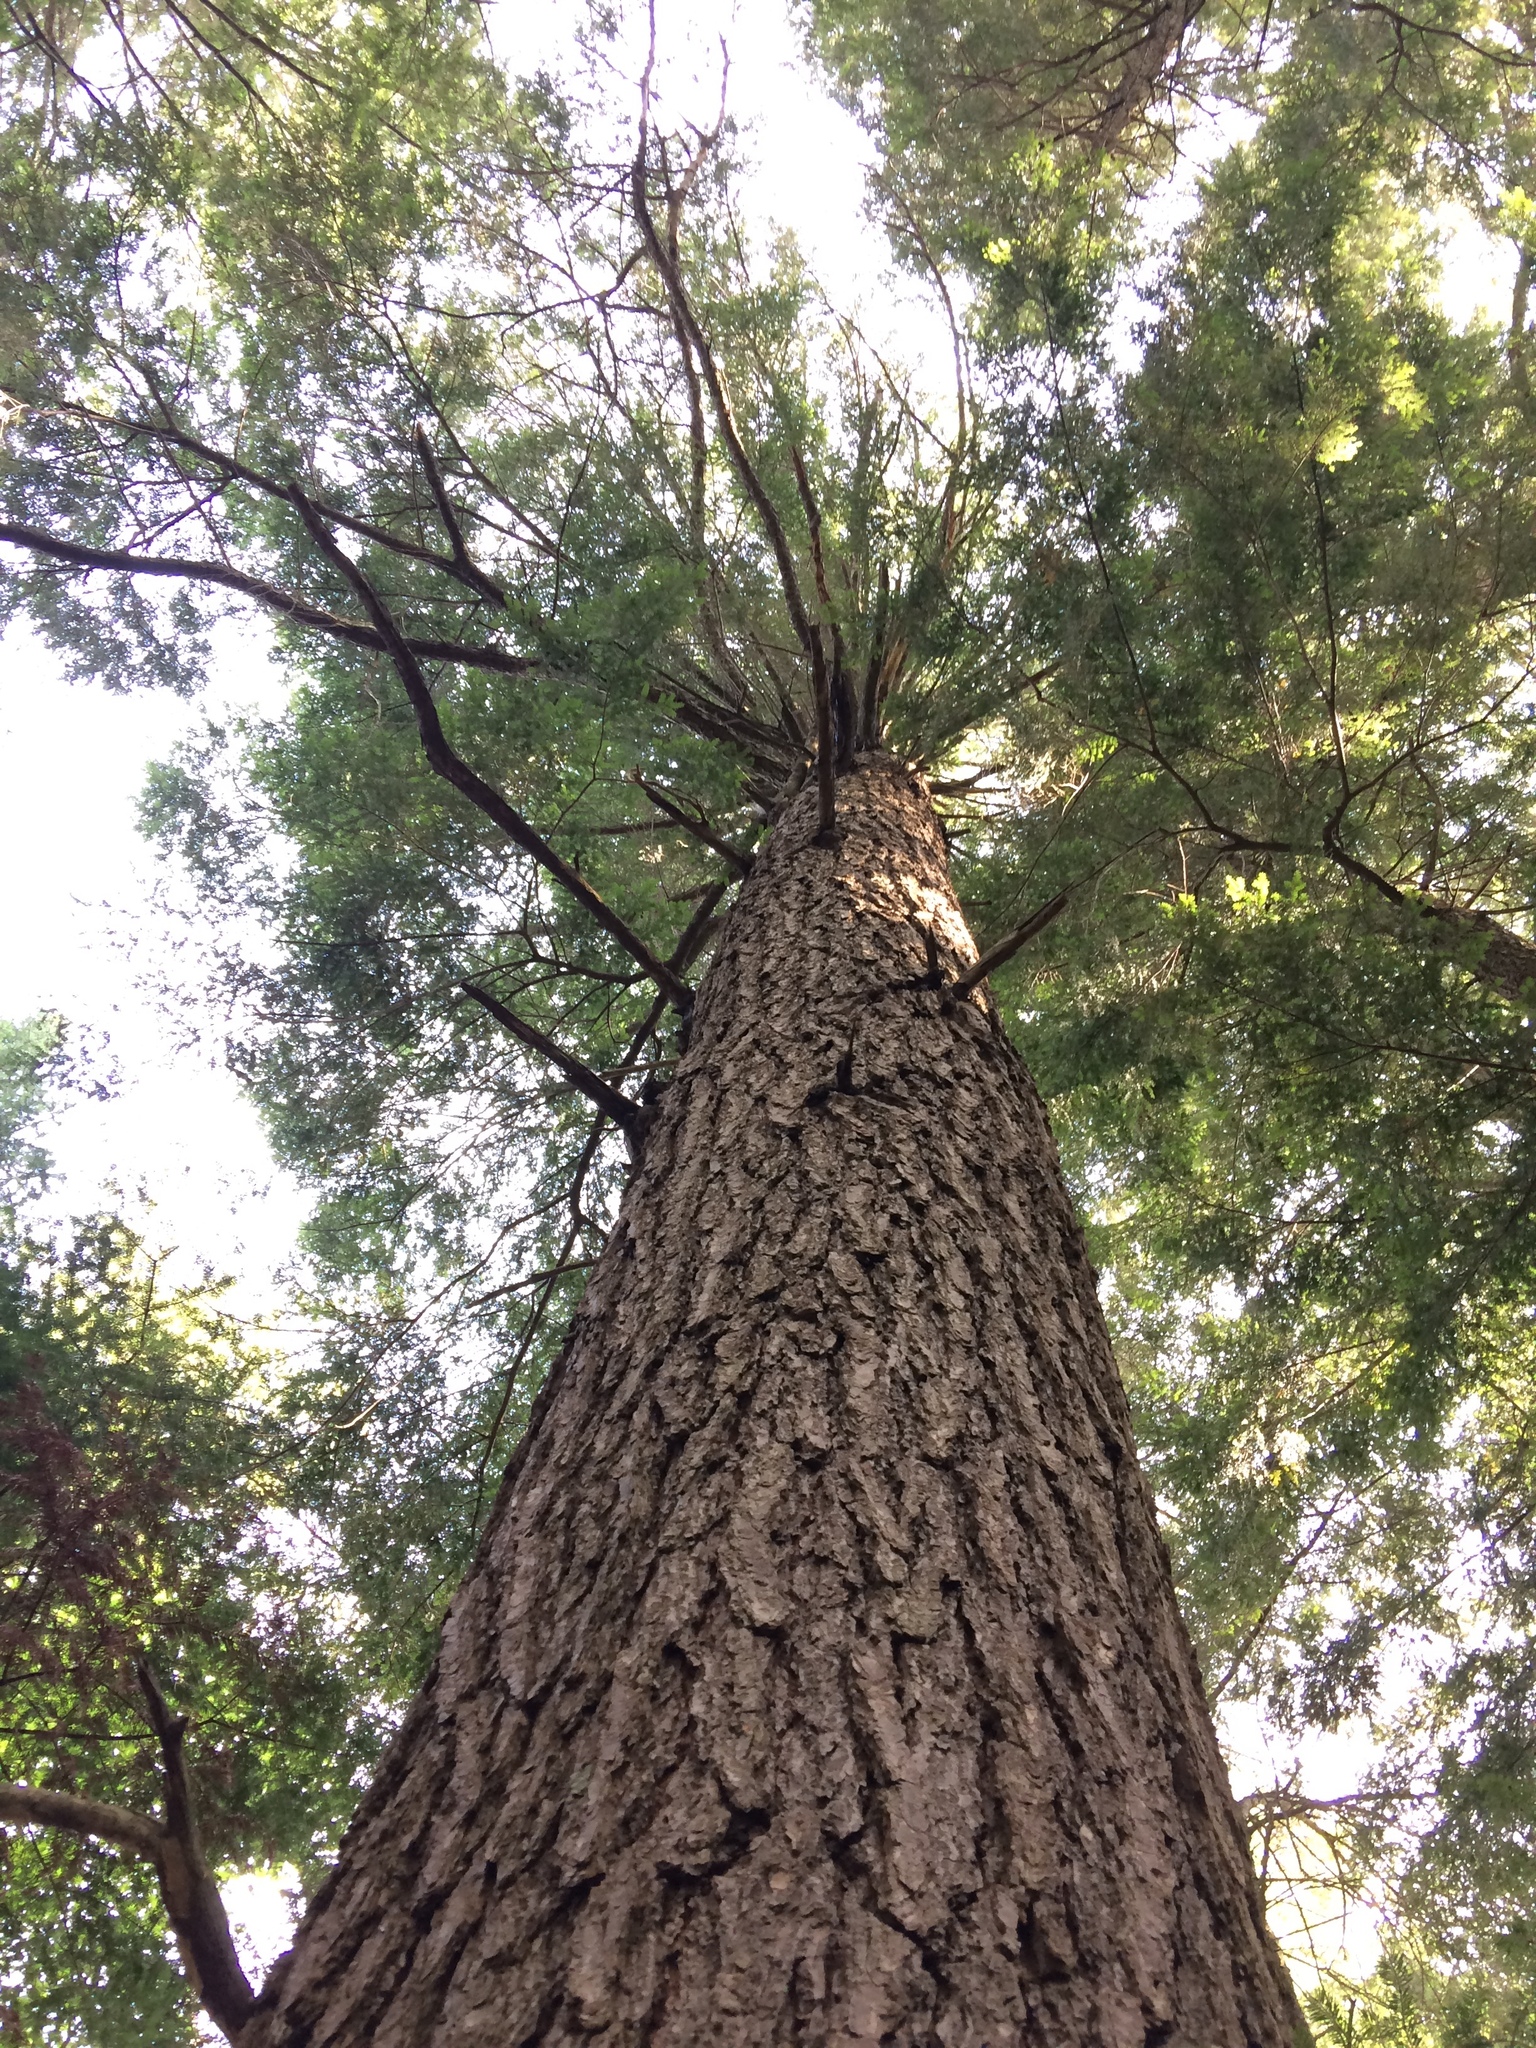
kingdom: Plantae
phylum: Tracheophyta
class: Pinopsida
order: Pinales
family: Pinaceae
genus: Tsuga
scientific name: Tsuga canadensis
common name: Eastern hemlock
